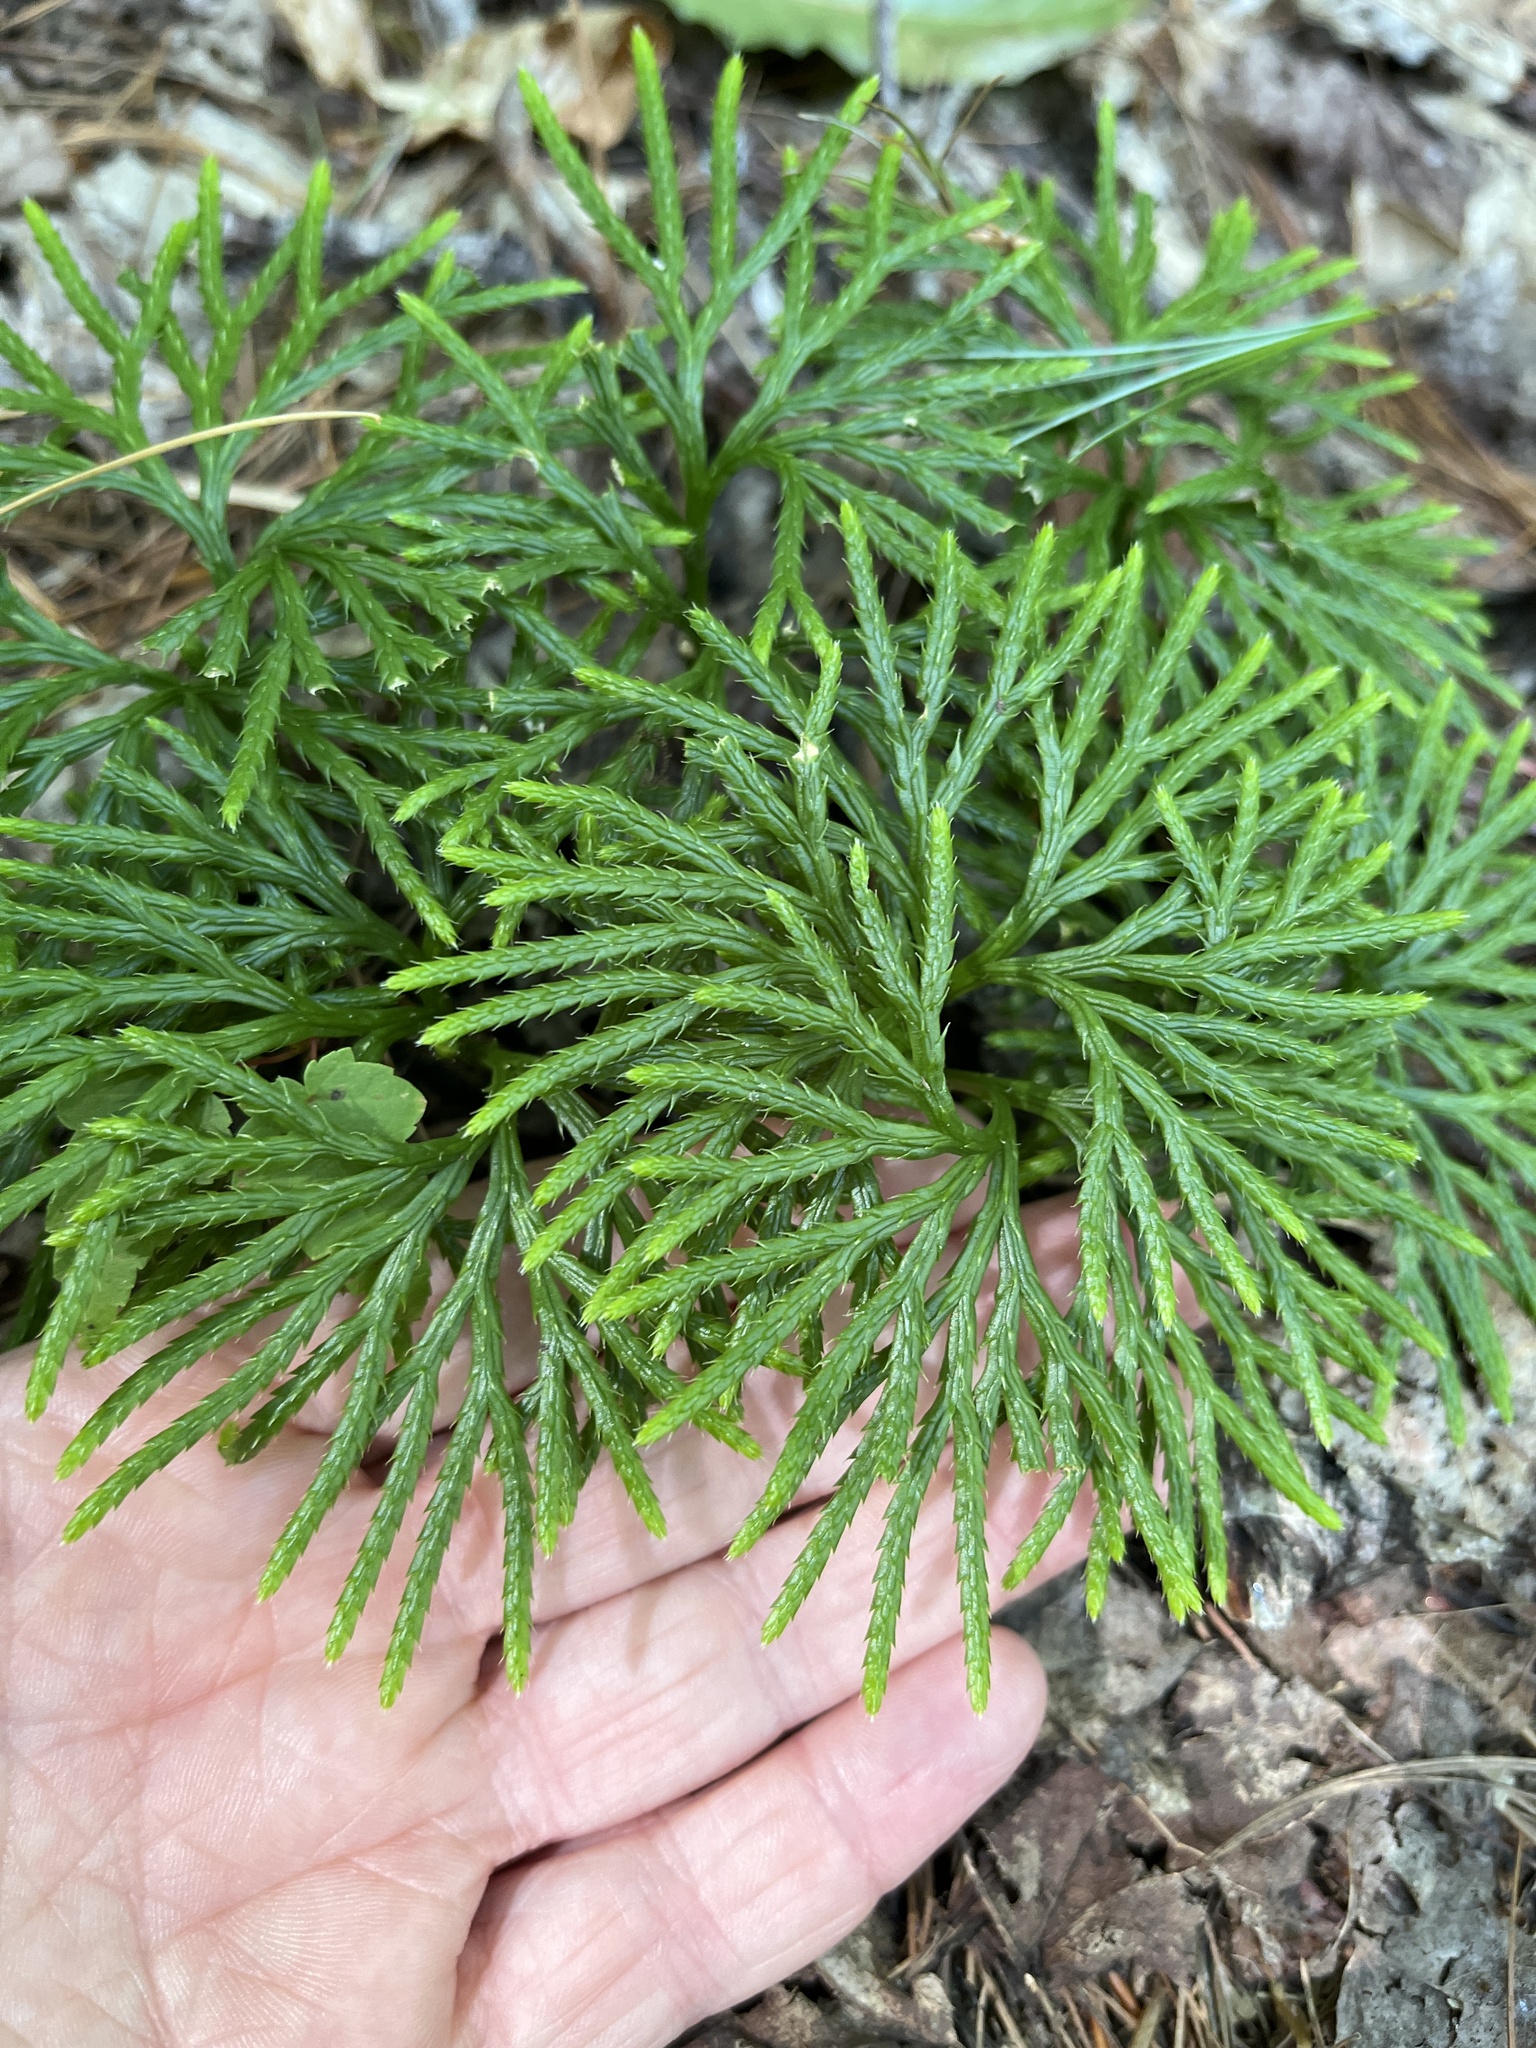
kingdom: Plantae
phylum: Tracheophyta
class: Lycopodiopsida
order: Lycopodiales
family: Lycopodiaceae
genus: Diphasiastrum
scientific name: Diphasiastrum digitatum
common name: Southern running-pine
